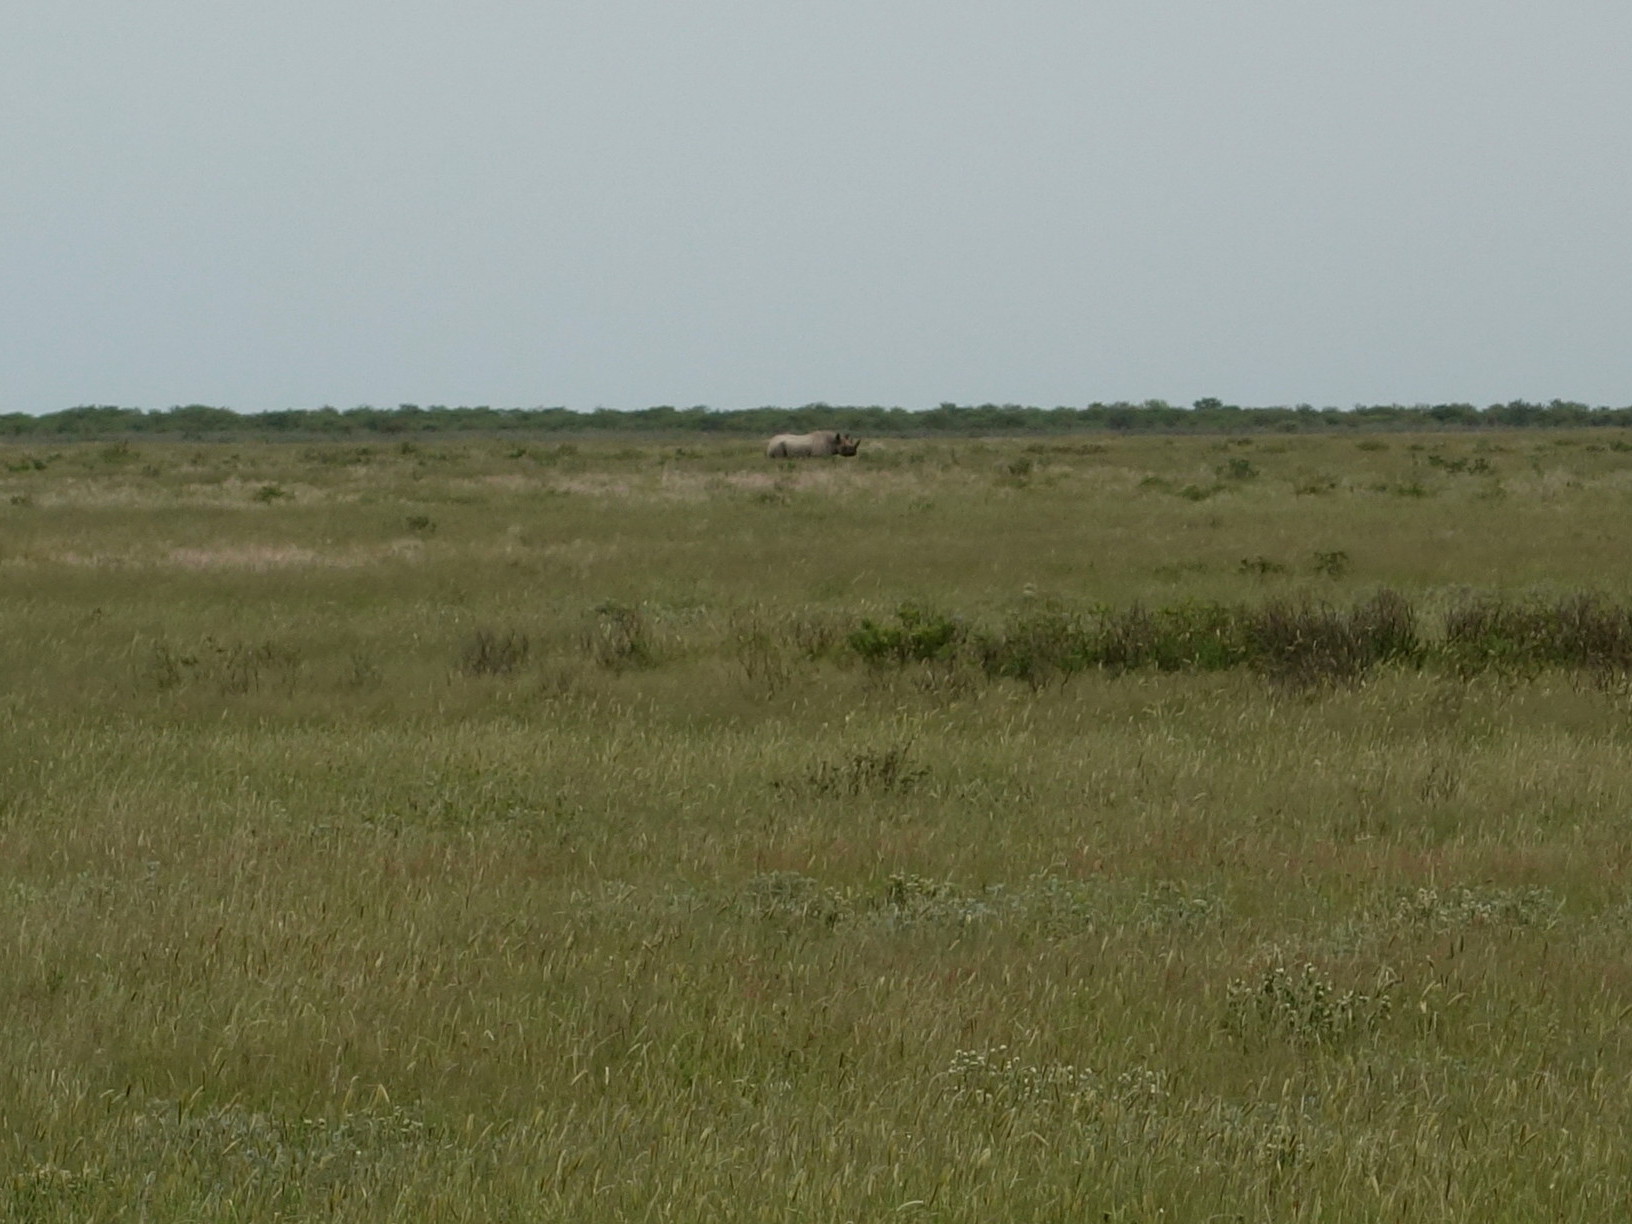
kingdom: Animalia
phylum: Chordata
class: Mammalia
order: Perissodactyla
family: Rhinocerotidae
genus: Diceros
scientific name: Diceros bicornis
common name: Black rhinoceros
